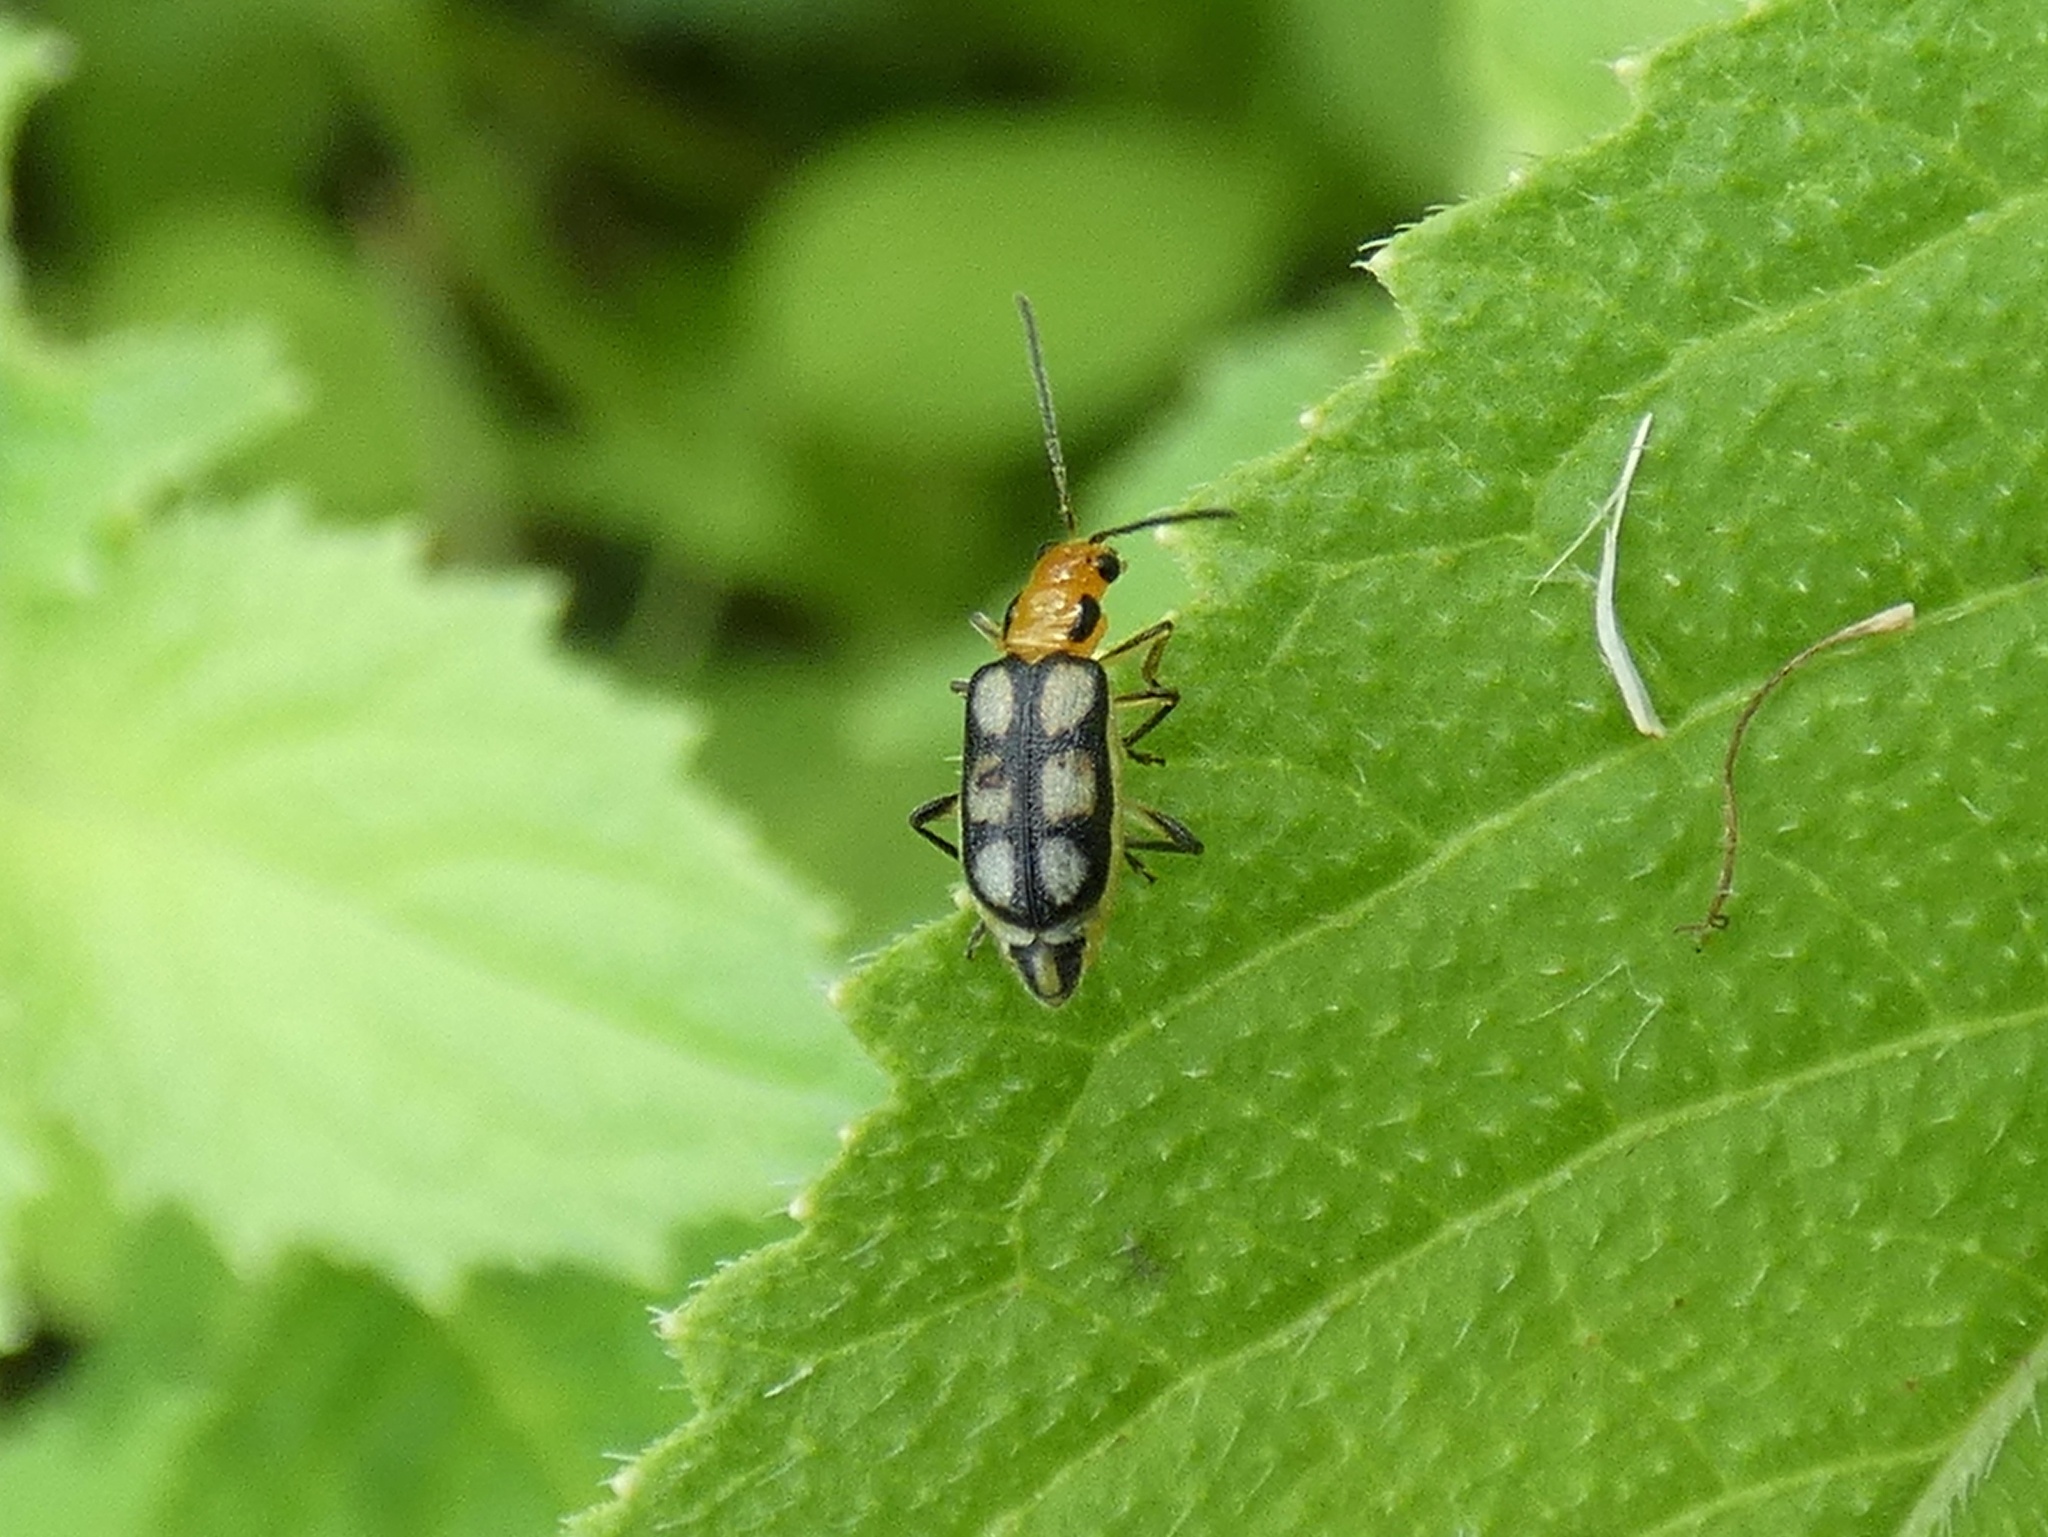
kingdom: Animalia
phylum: Arthropoda
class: Insecta
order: Coleoptera
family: Chrysomelidae
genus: Trichobrotica
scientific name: Trichobrotica
